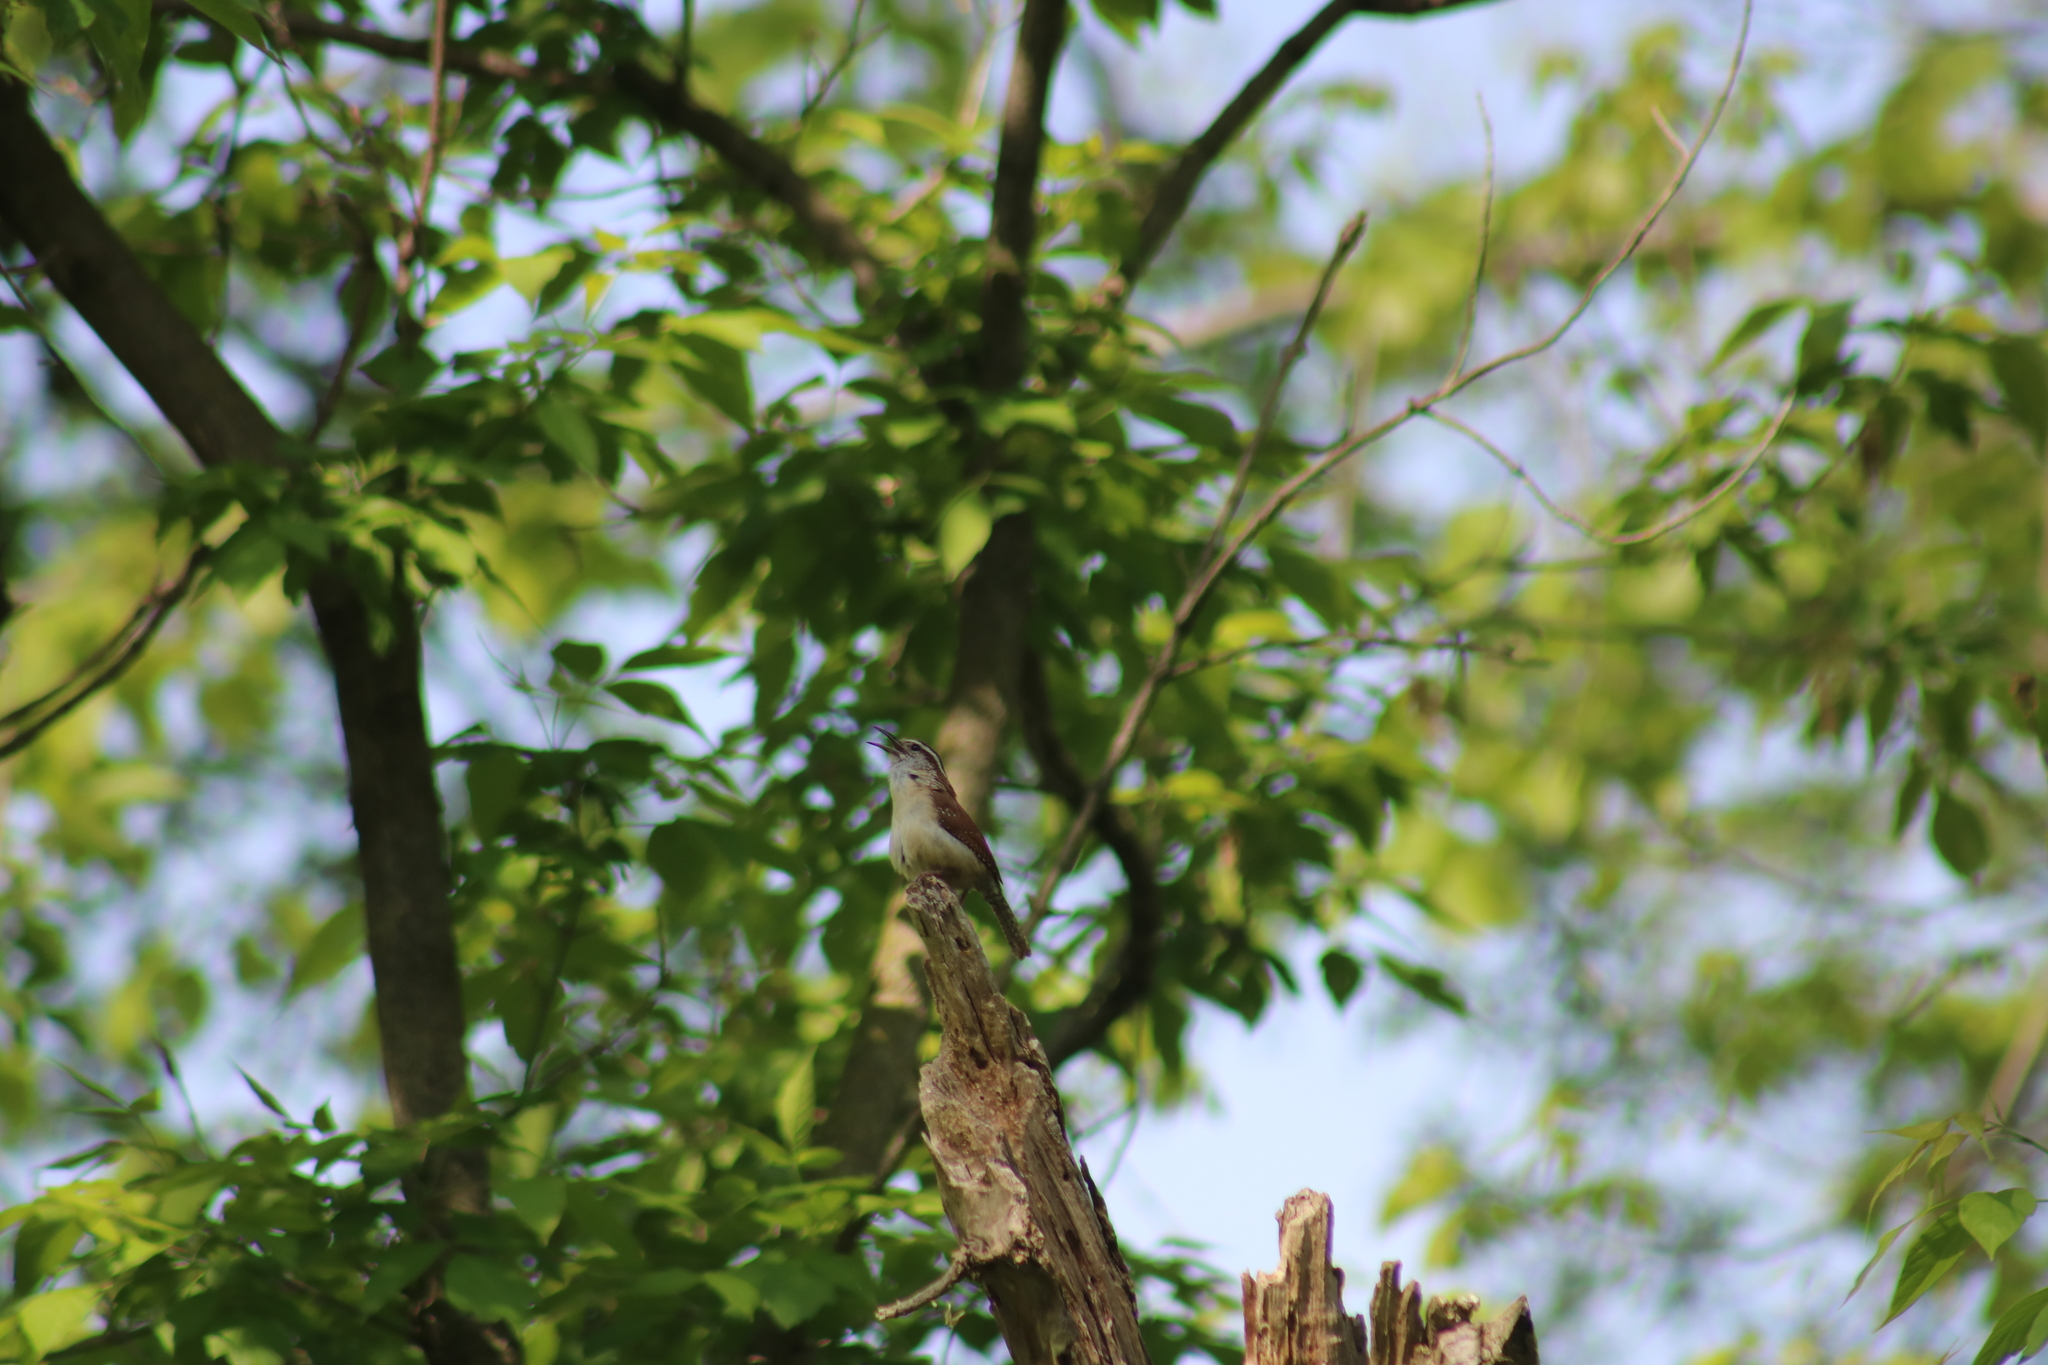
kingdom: Animalia
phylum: Chordata
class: Aves
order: Passeriformes
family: Troglodytidae
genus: Thryothorus
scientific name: Thryothorus ludovicianus
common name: Carolina wren
